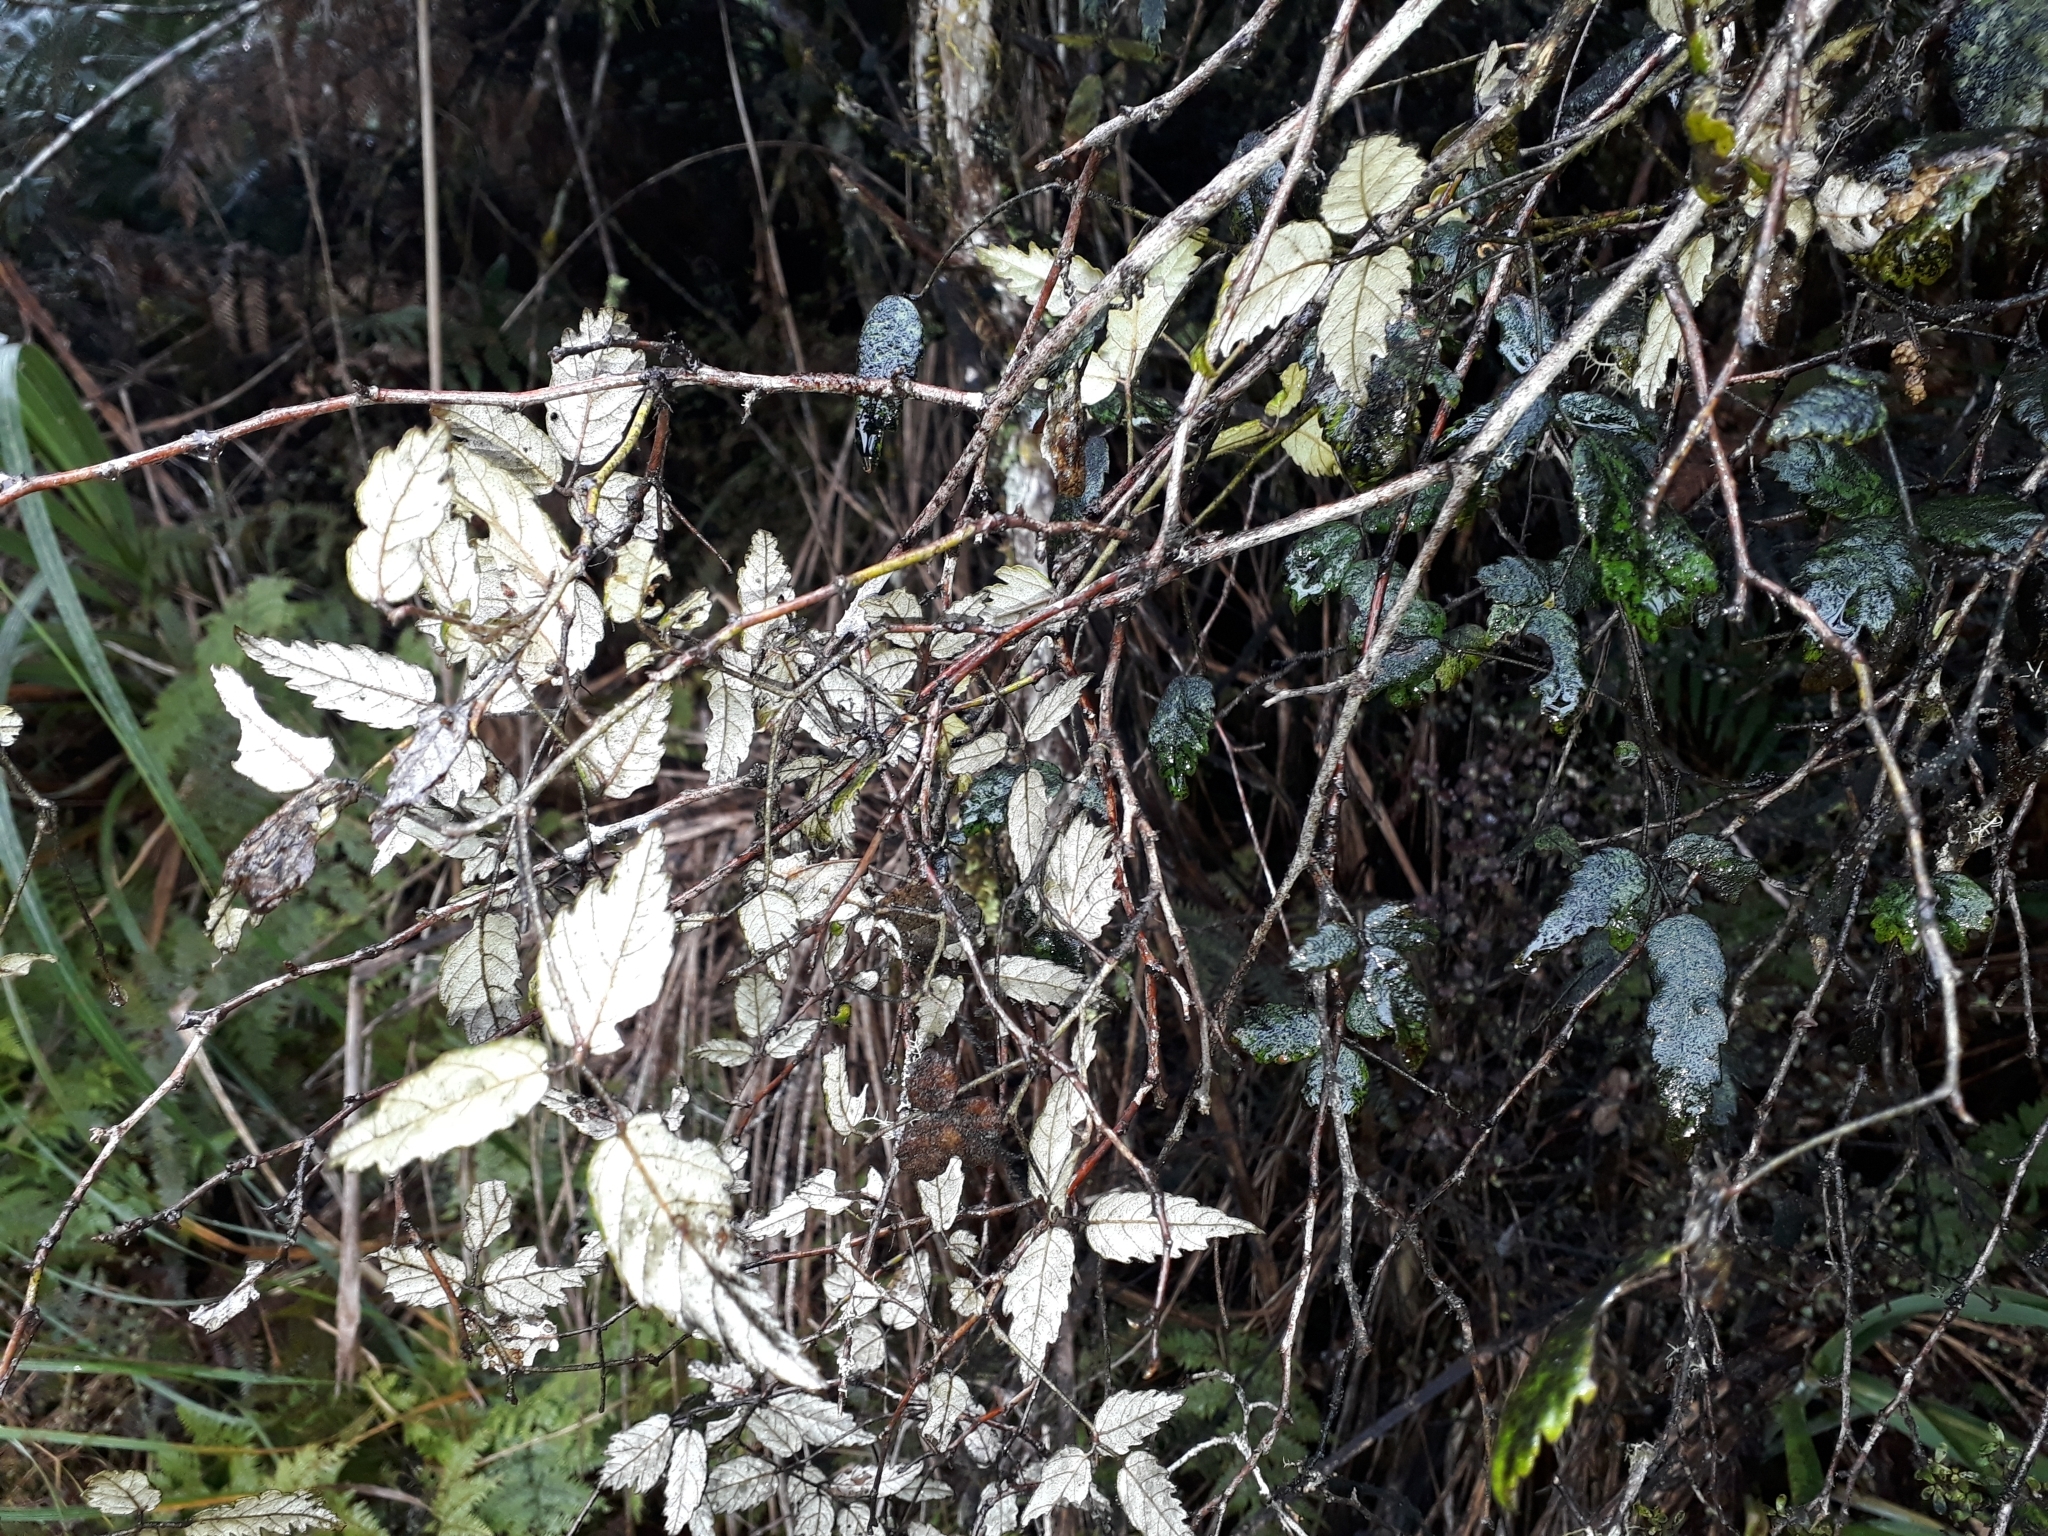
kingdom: Plantae
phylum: Tracheophyta
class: Magnoliopsida
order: Rosales
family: Rosaceae
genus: Rubus
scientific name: Rubus schmidelioides
